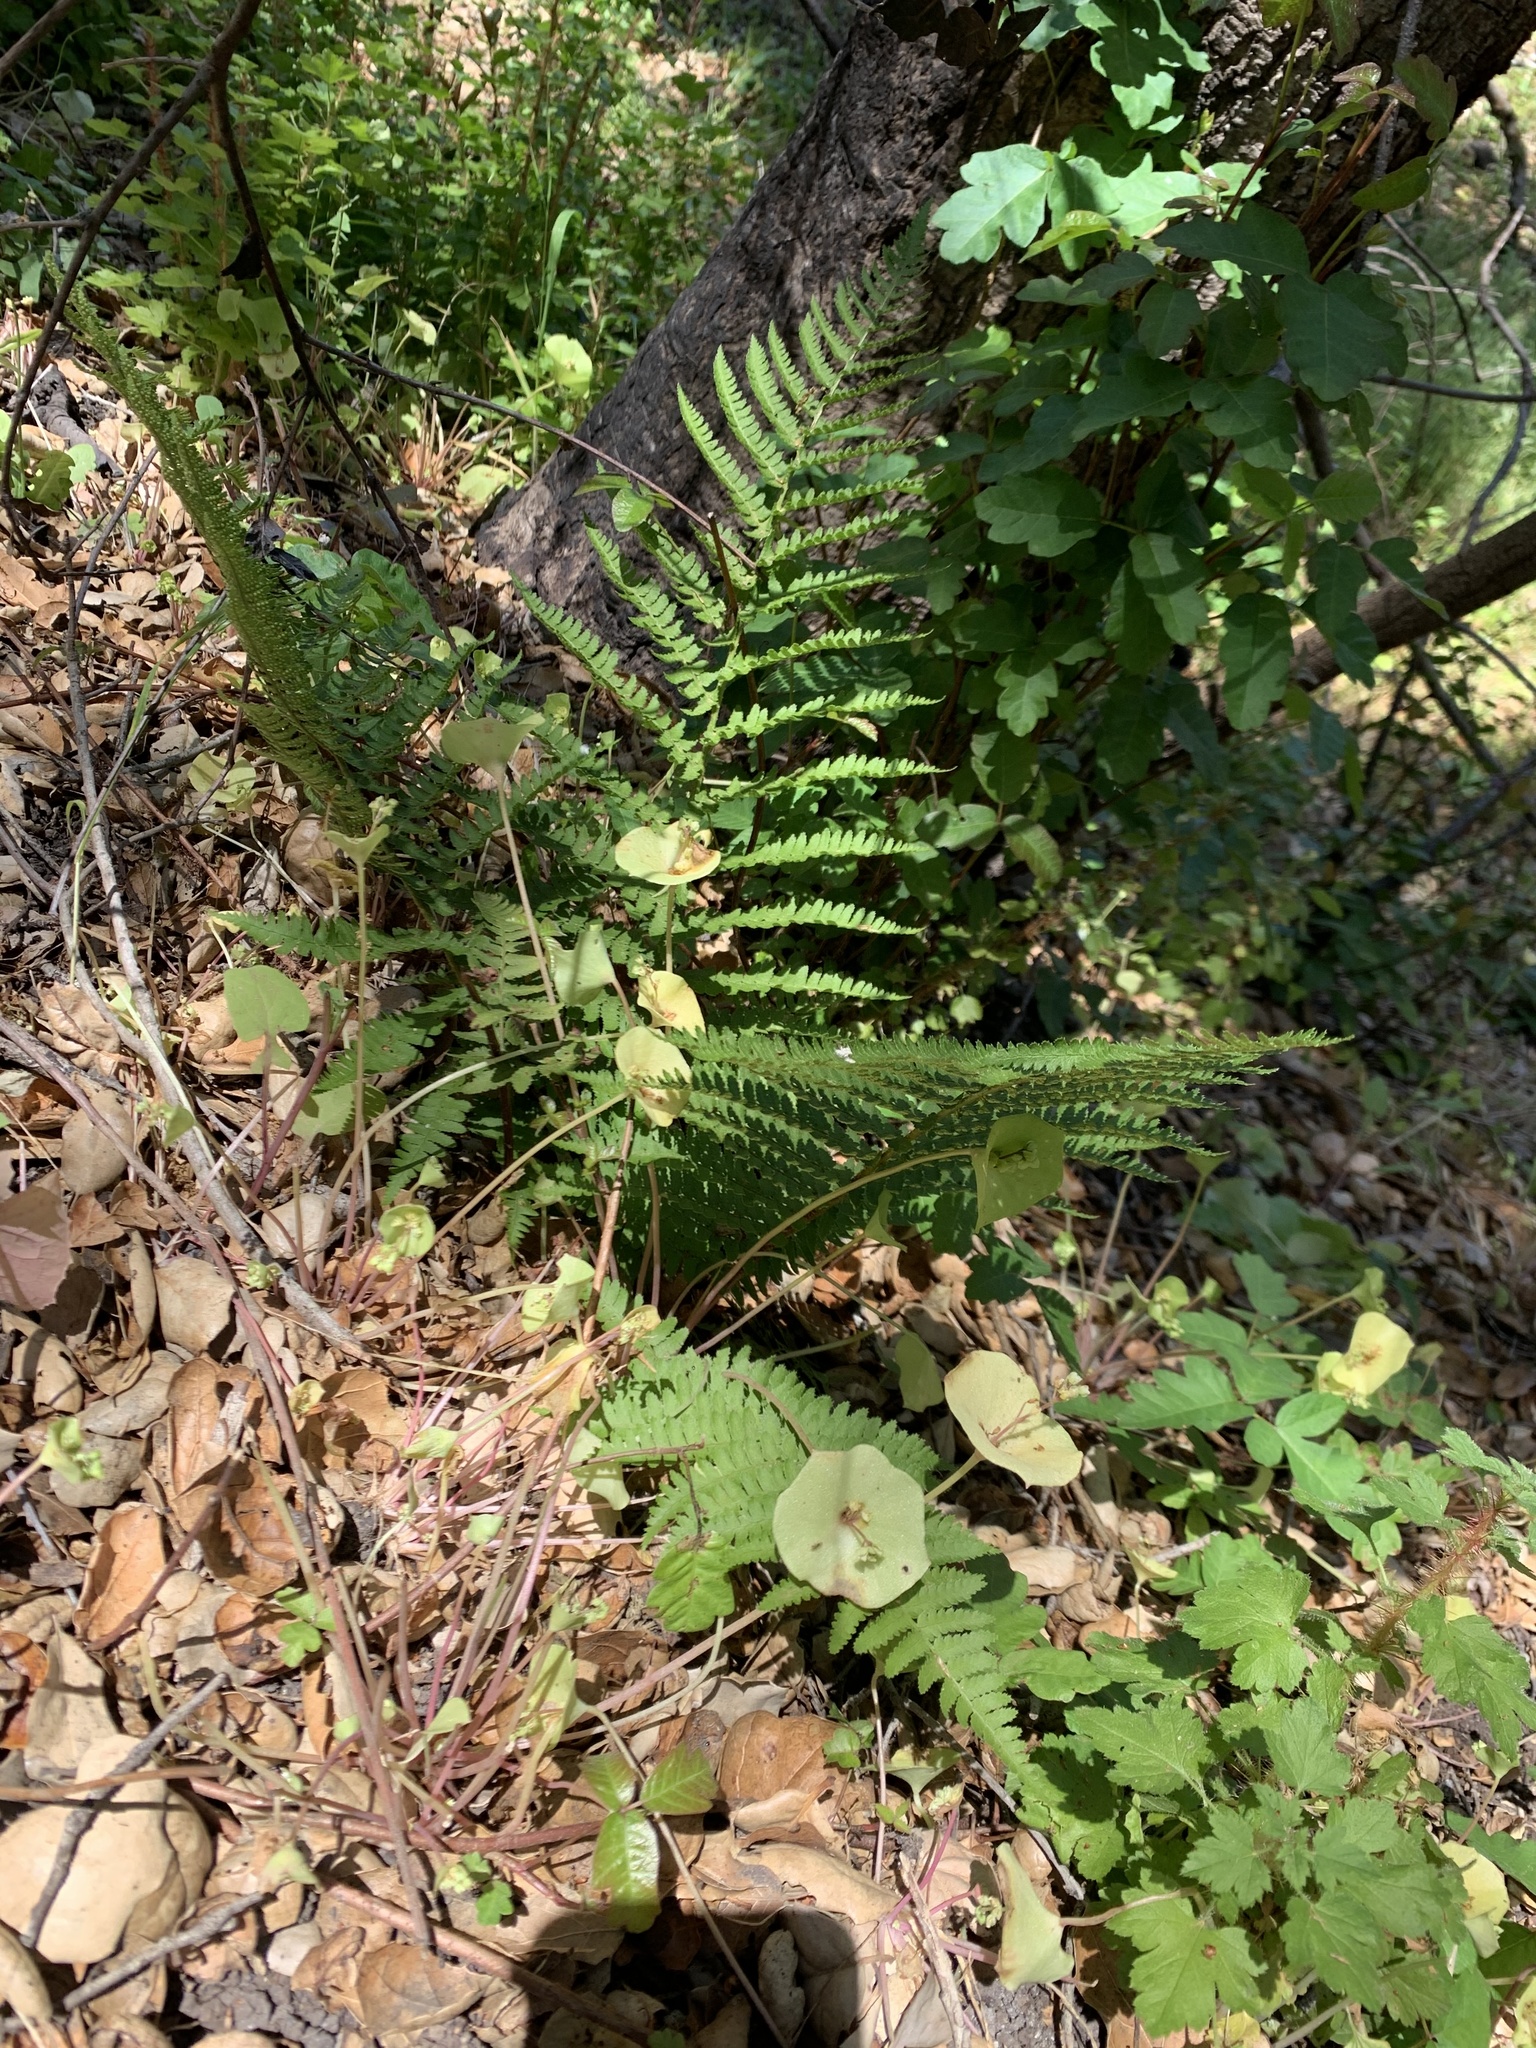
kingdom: Plantae
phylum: Tracheophyta
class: Polypodiopsida
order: Polypodiales
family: Dryopteridaceae
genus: Dryopteris
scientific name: Dryopteris arguta
